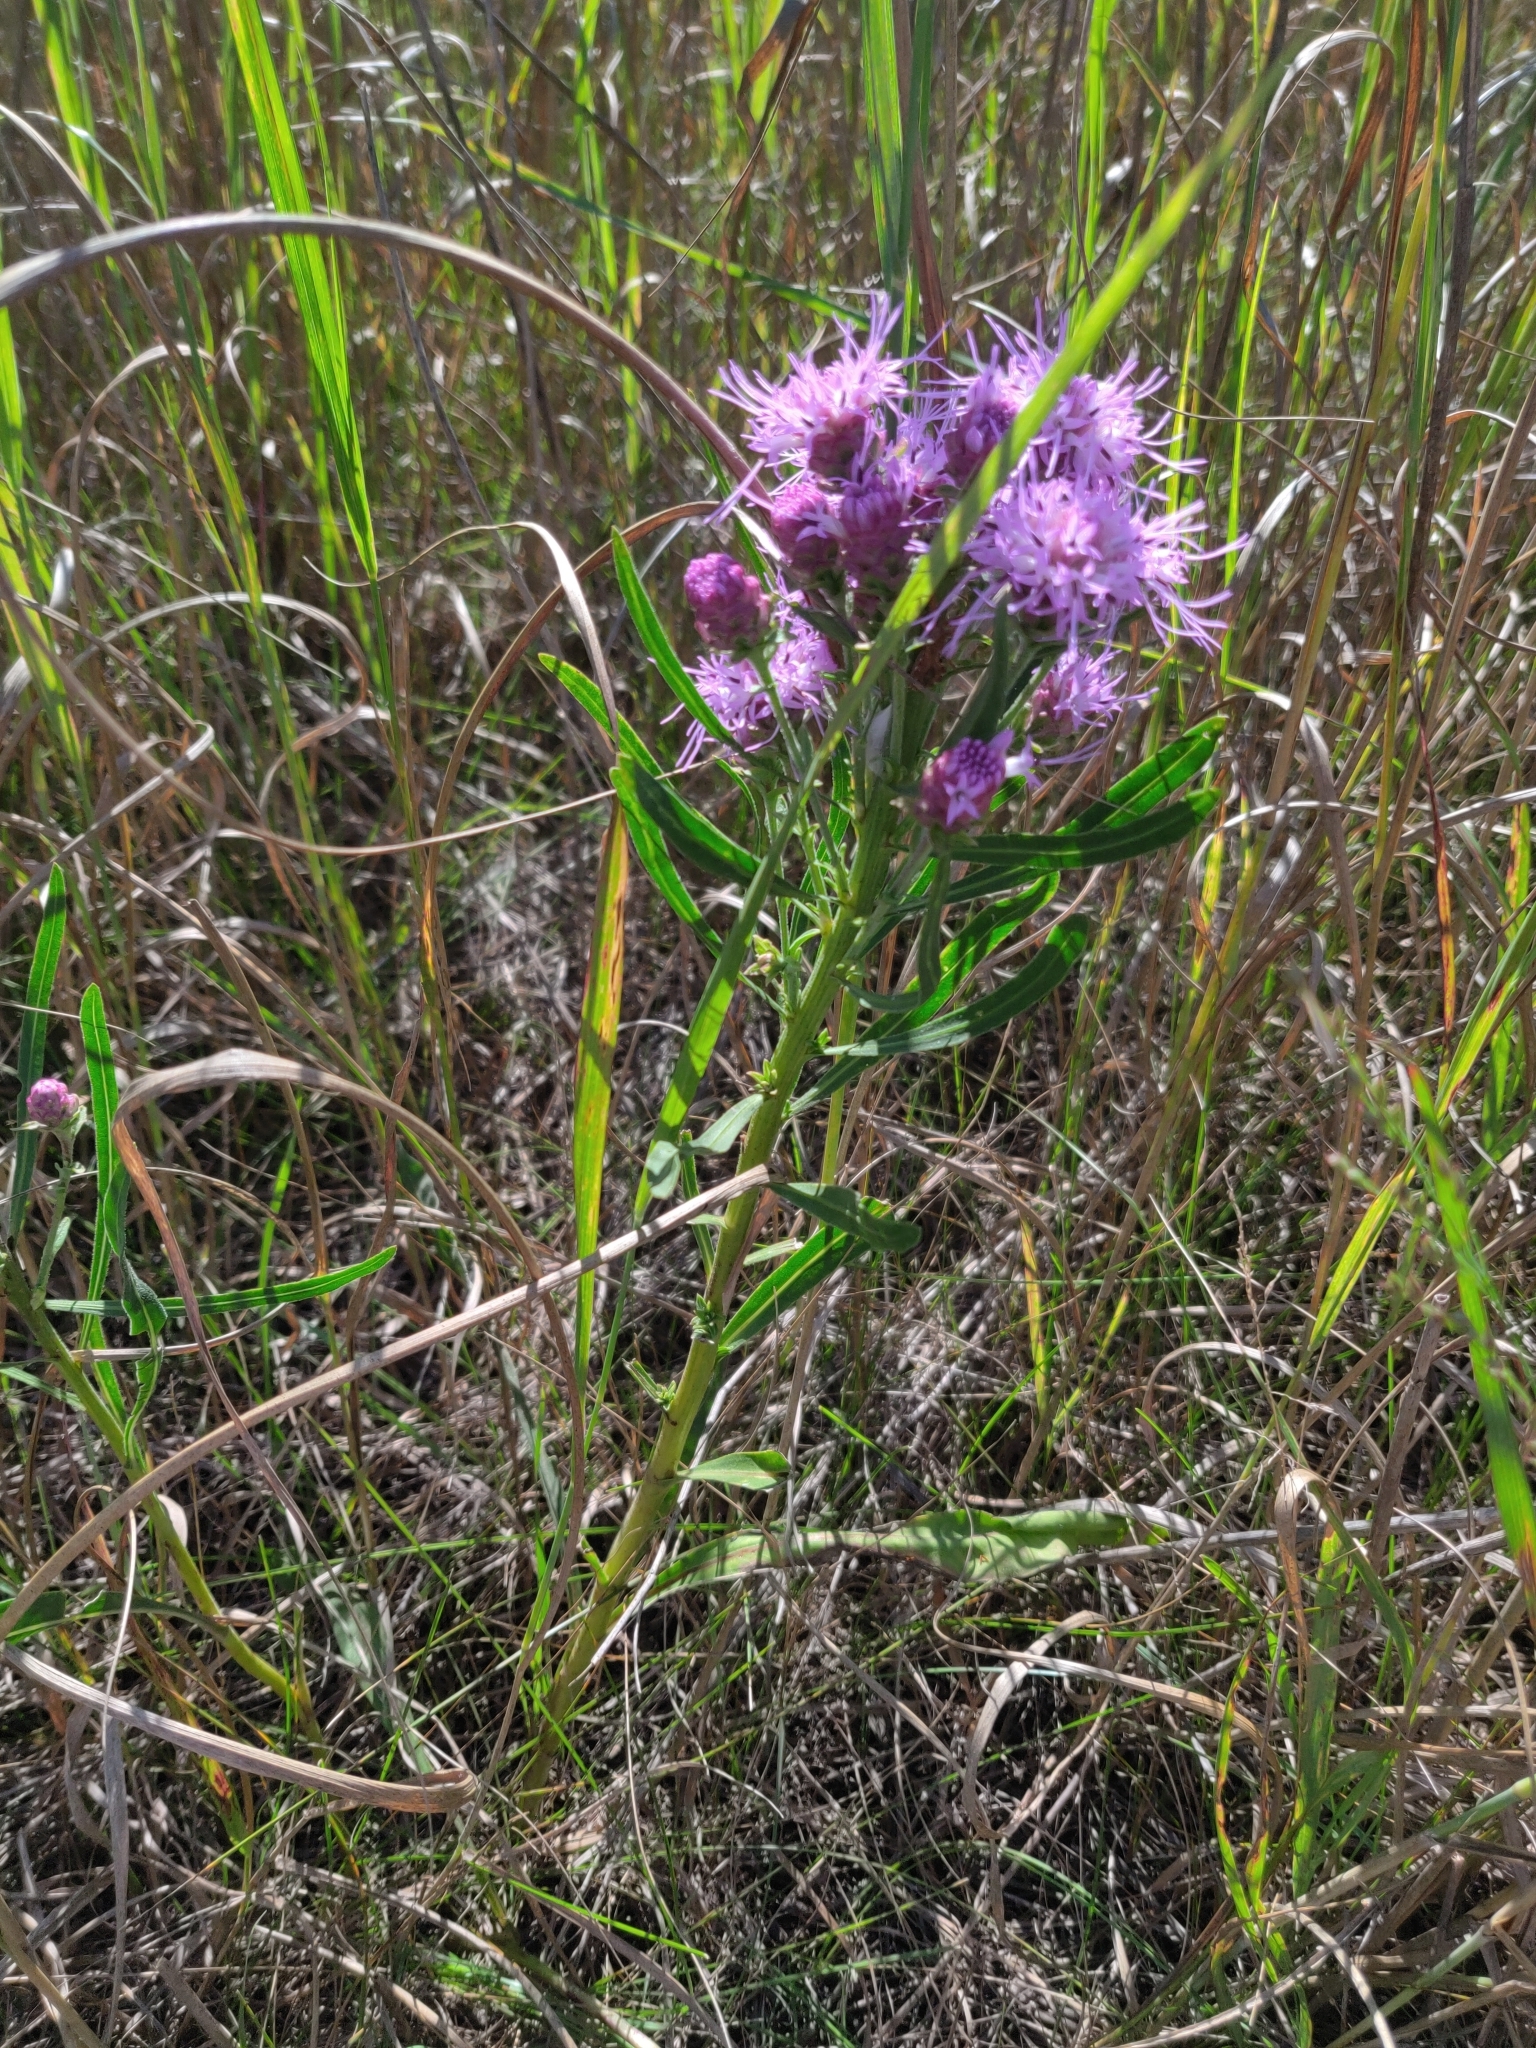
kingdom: Plantae
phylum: Tracheophyta
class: Magnoliopsida
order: Asterales
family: Asteraceae
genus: Liatris
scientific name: Liatris aspera
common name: Lacerate blazing-star
